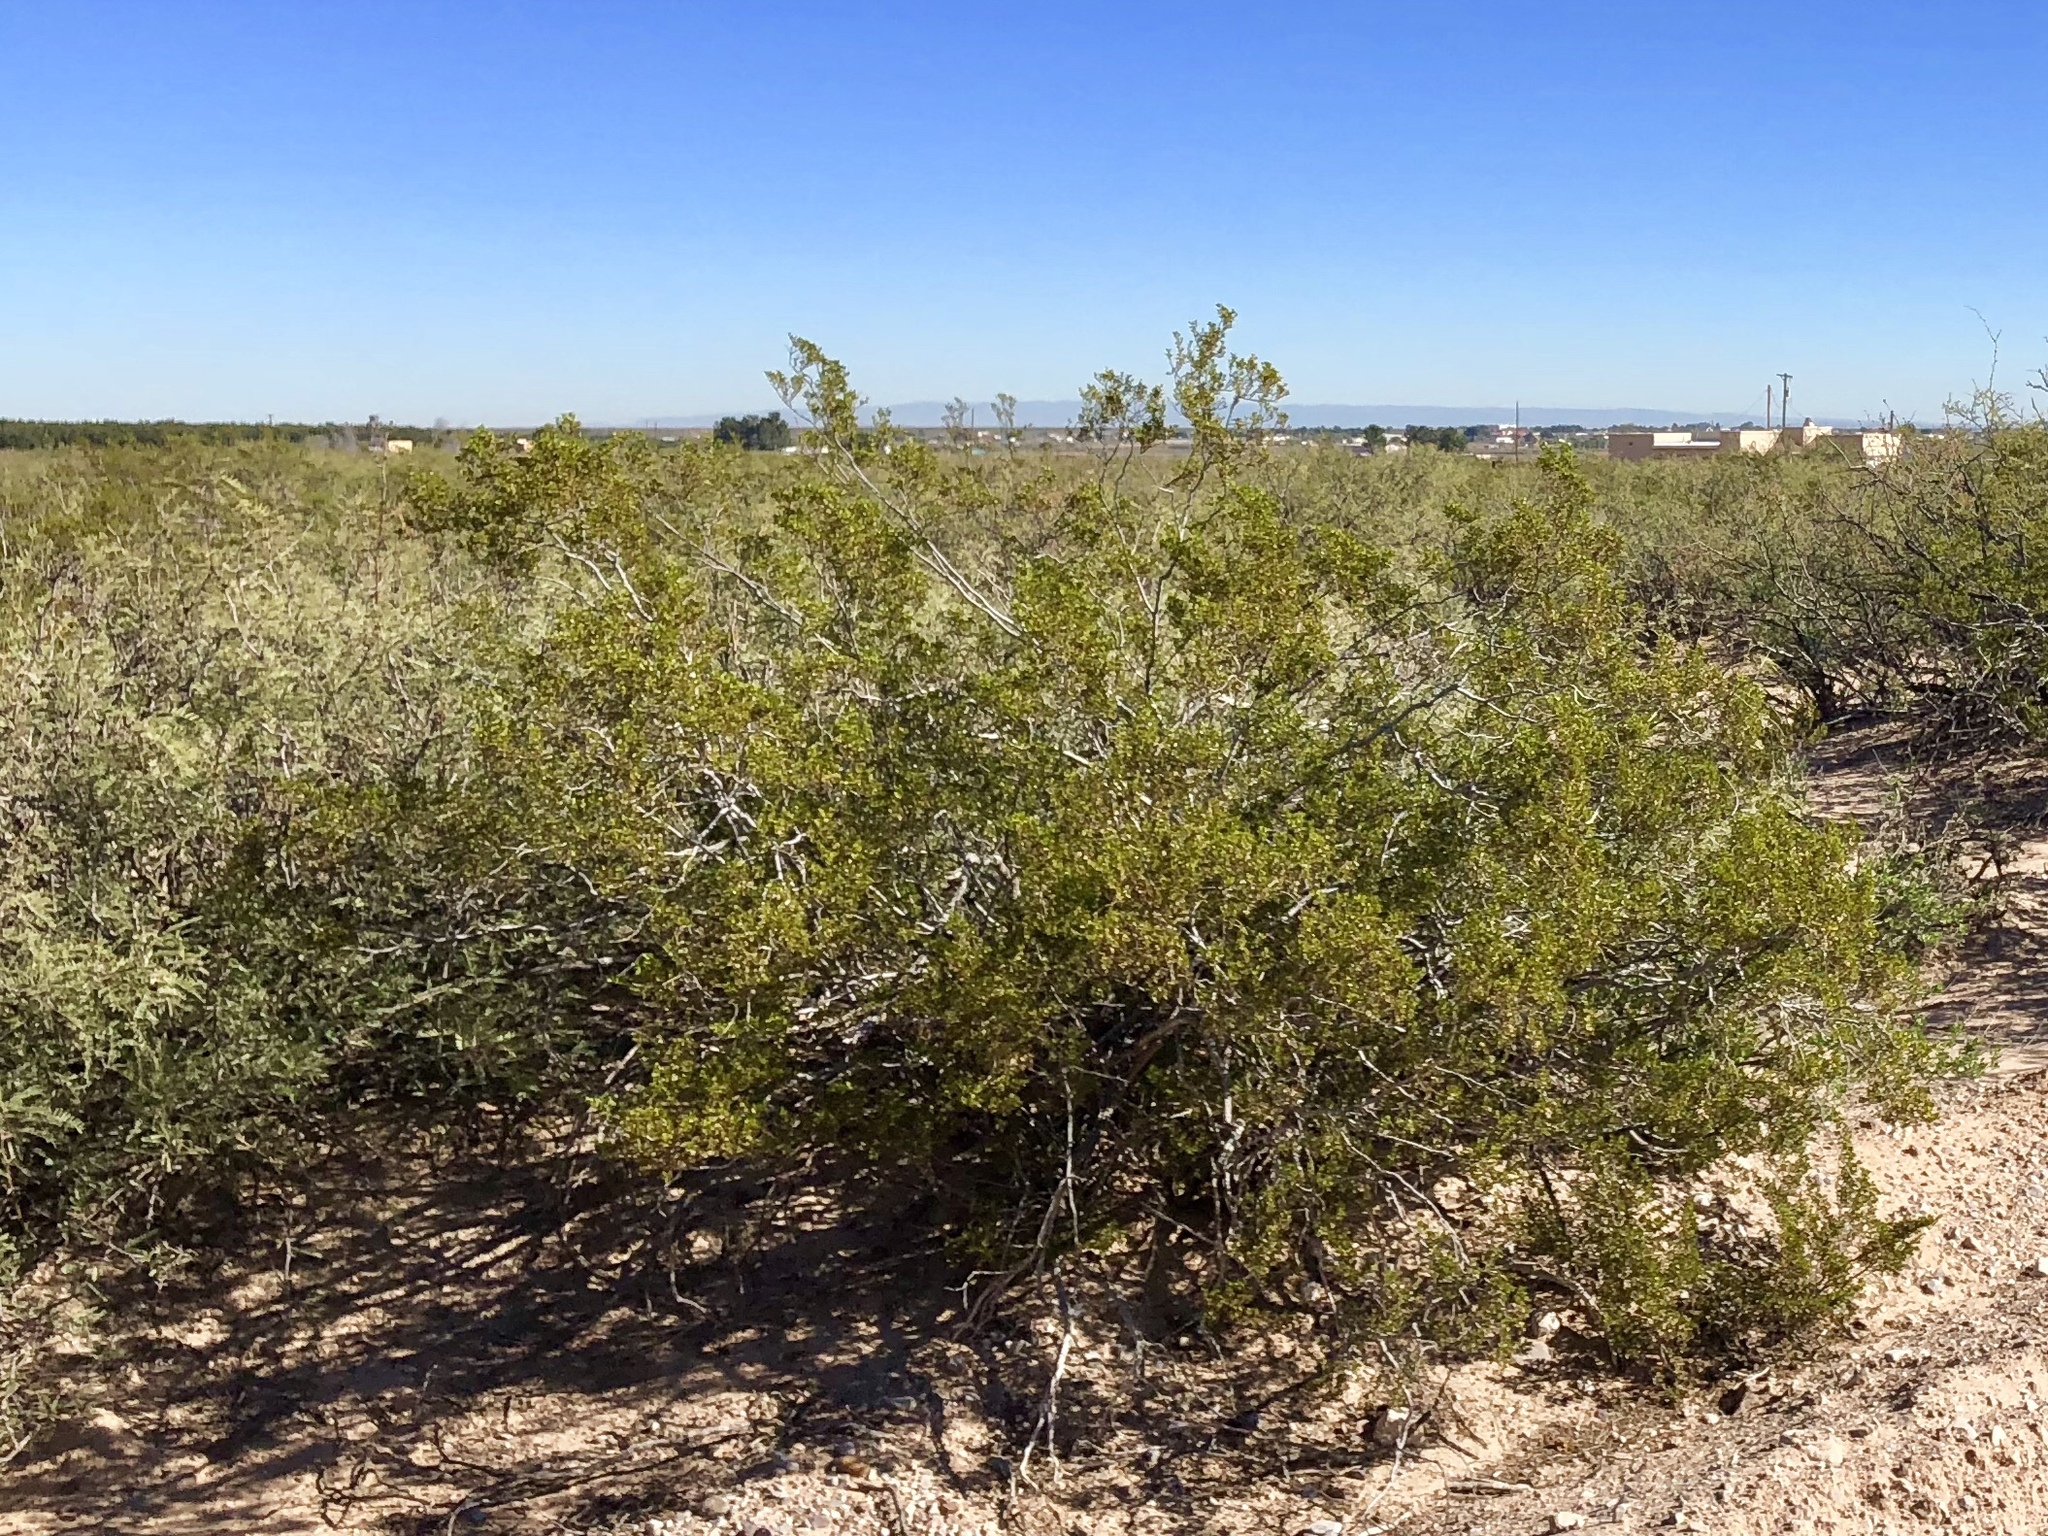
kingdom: Plantae
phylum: Tracheophyta
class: Magnoliopsida
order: Zygophyllales
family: Zygophyllaceae
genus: Larrea
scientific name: Larrea tridentata
